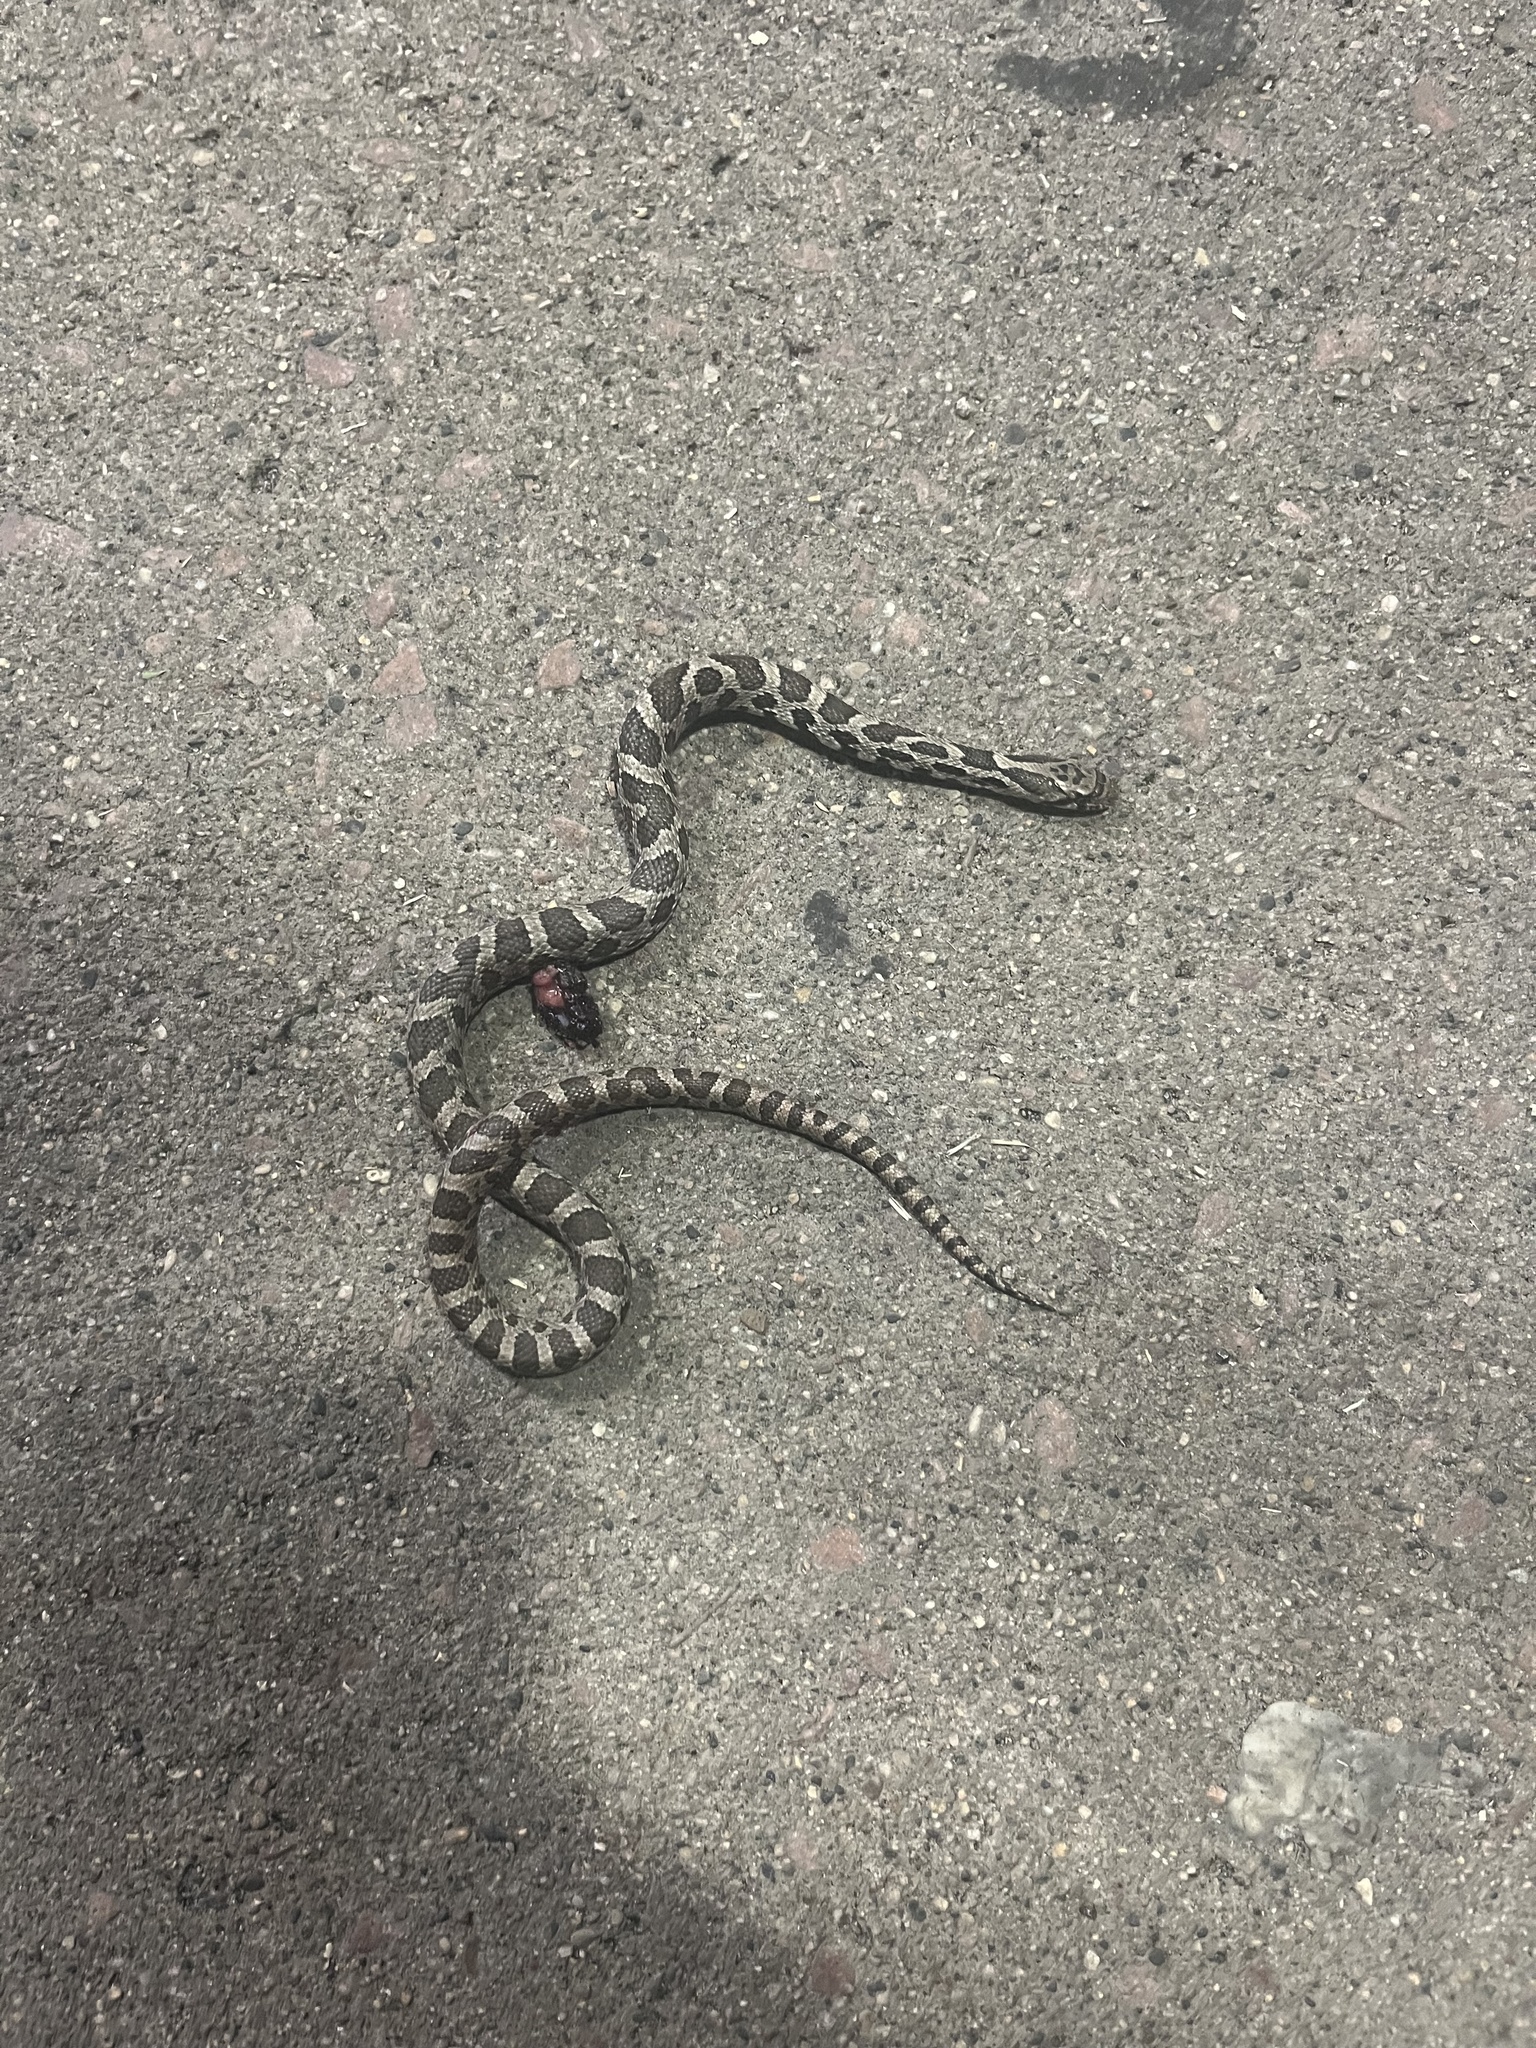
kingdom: Animalia
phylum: Chordata
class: Squamata
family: Colubridae
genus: Pantherophis
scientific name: Pantherophis ramspotti
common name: Western foxsnake
